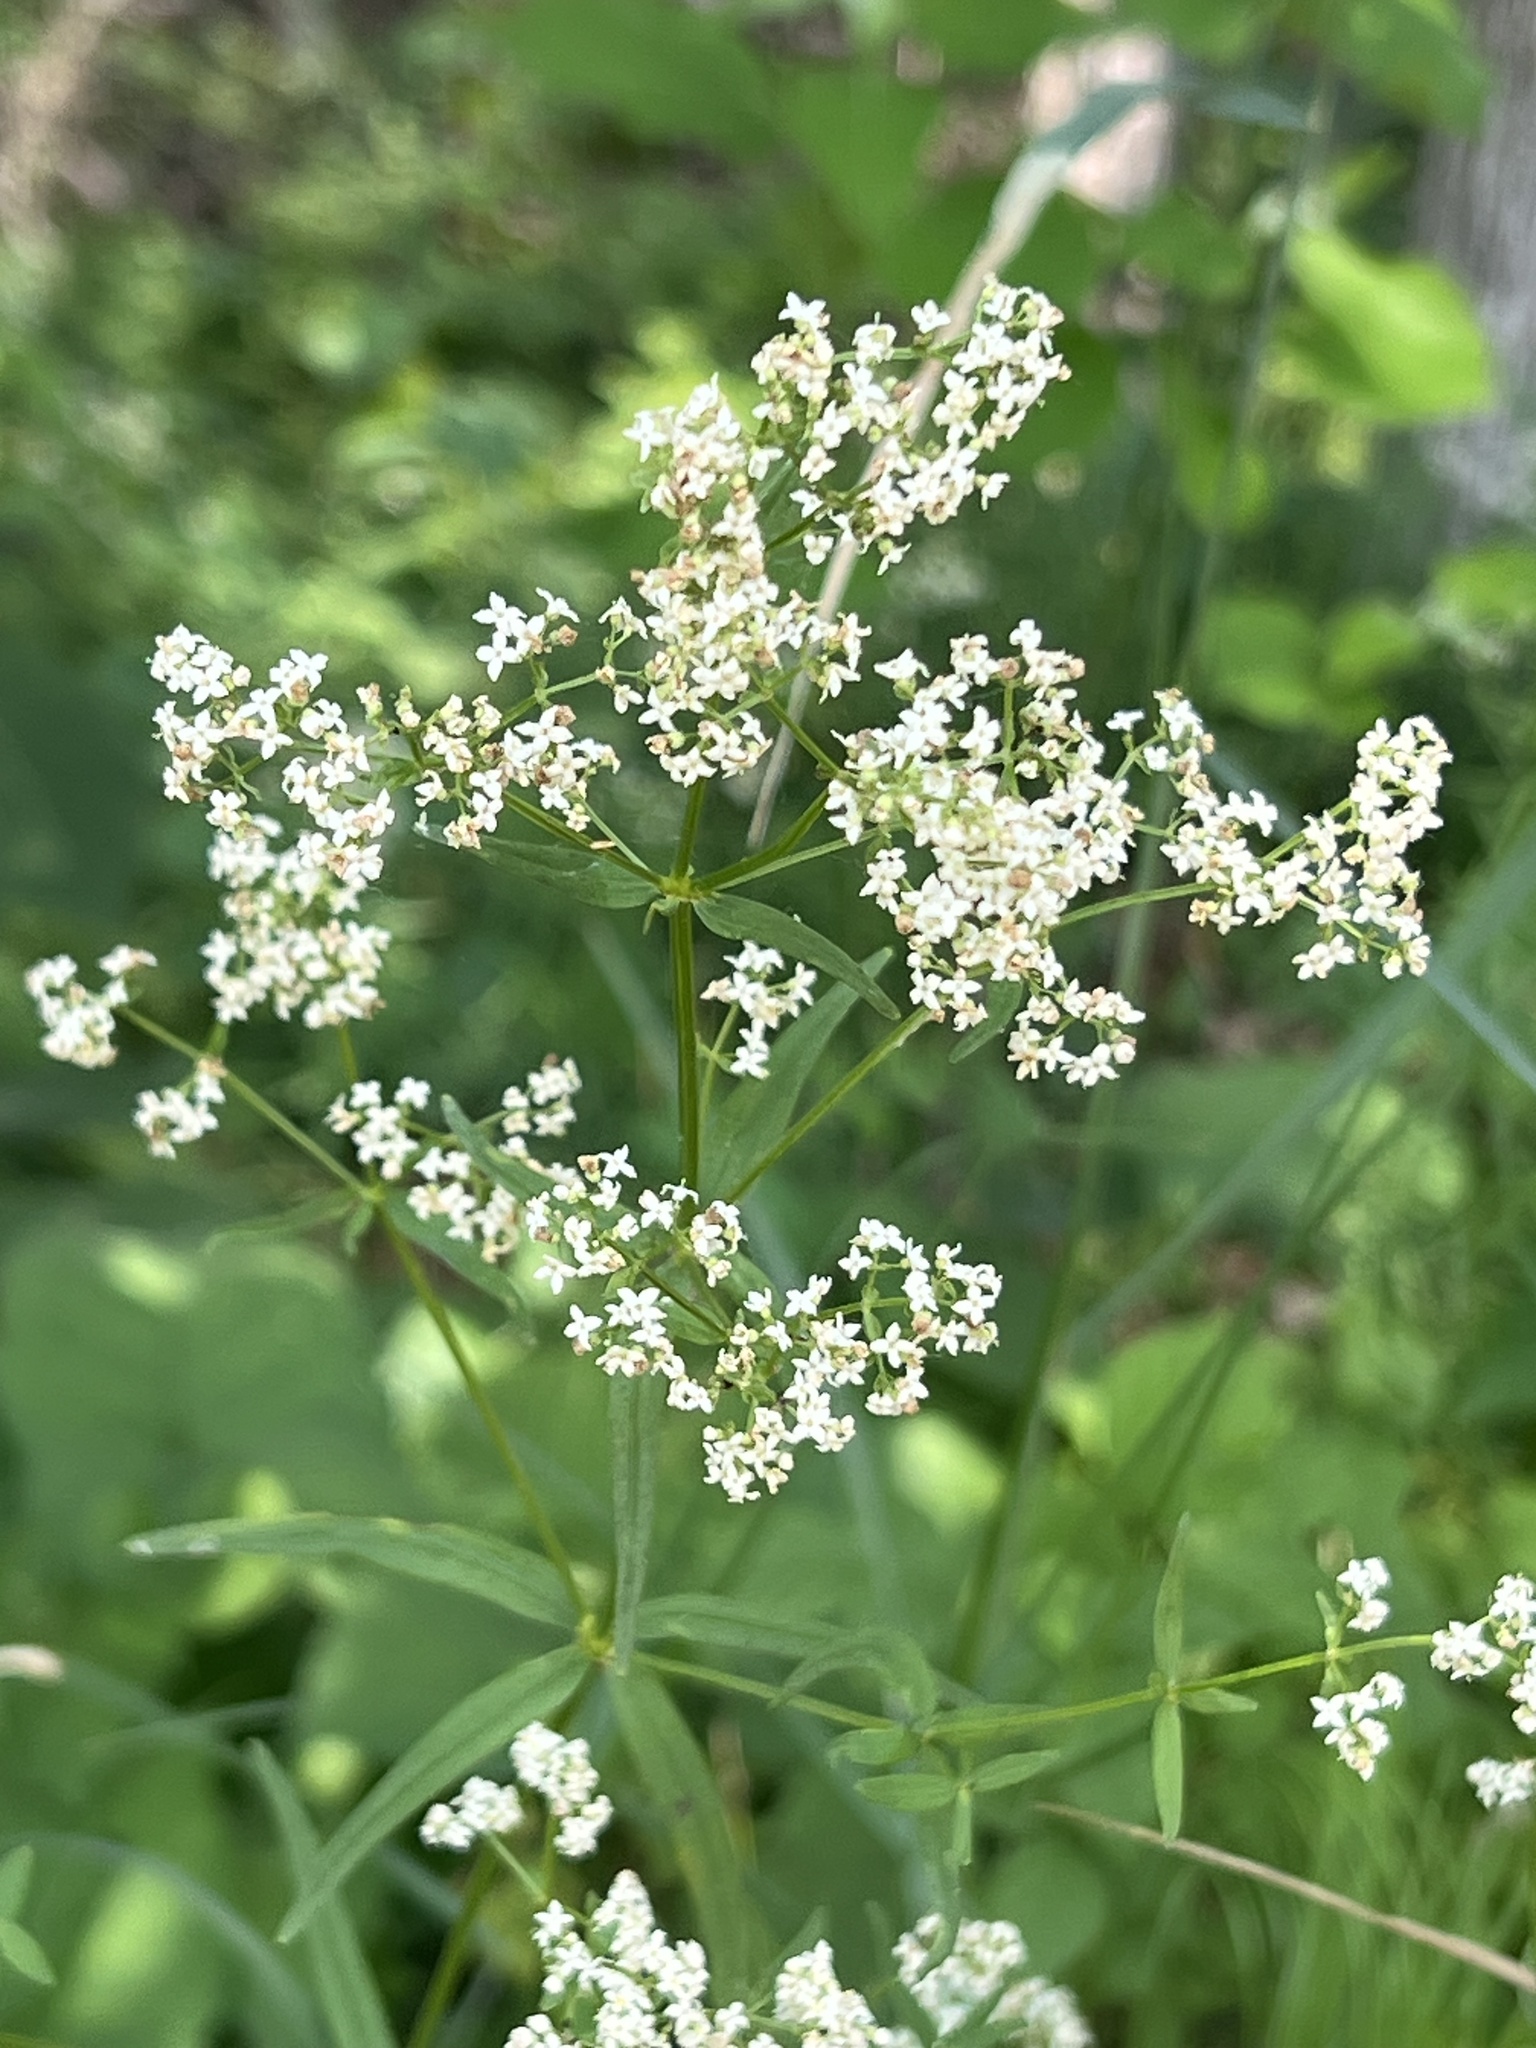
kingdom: Plantae
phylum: Tracheophyta
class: Magnoliopsida
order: Gentianales
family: Rubiaceae
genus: Galium
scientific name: Galium boreale
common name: Northern bedstraw
